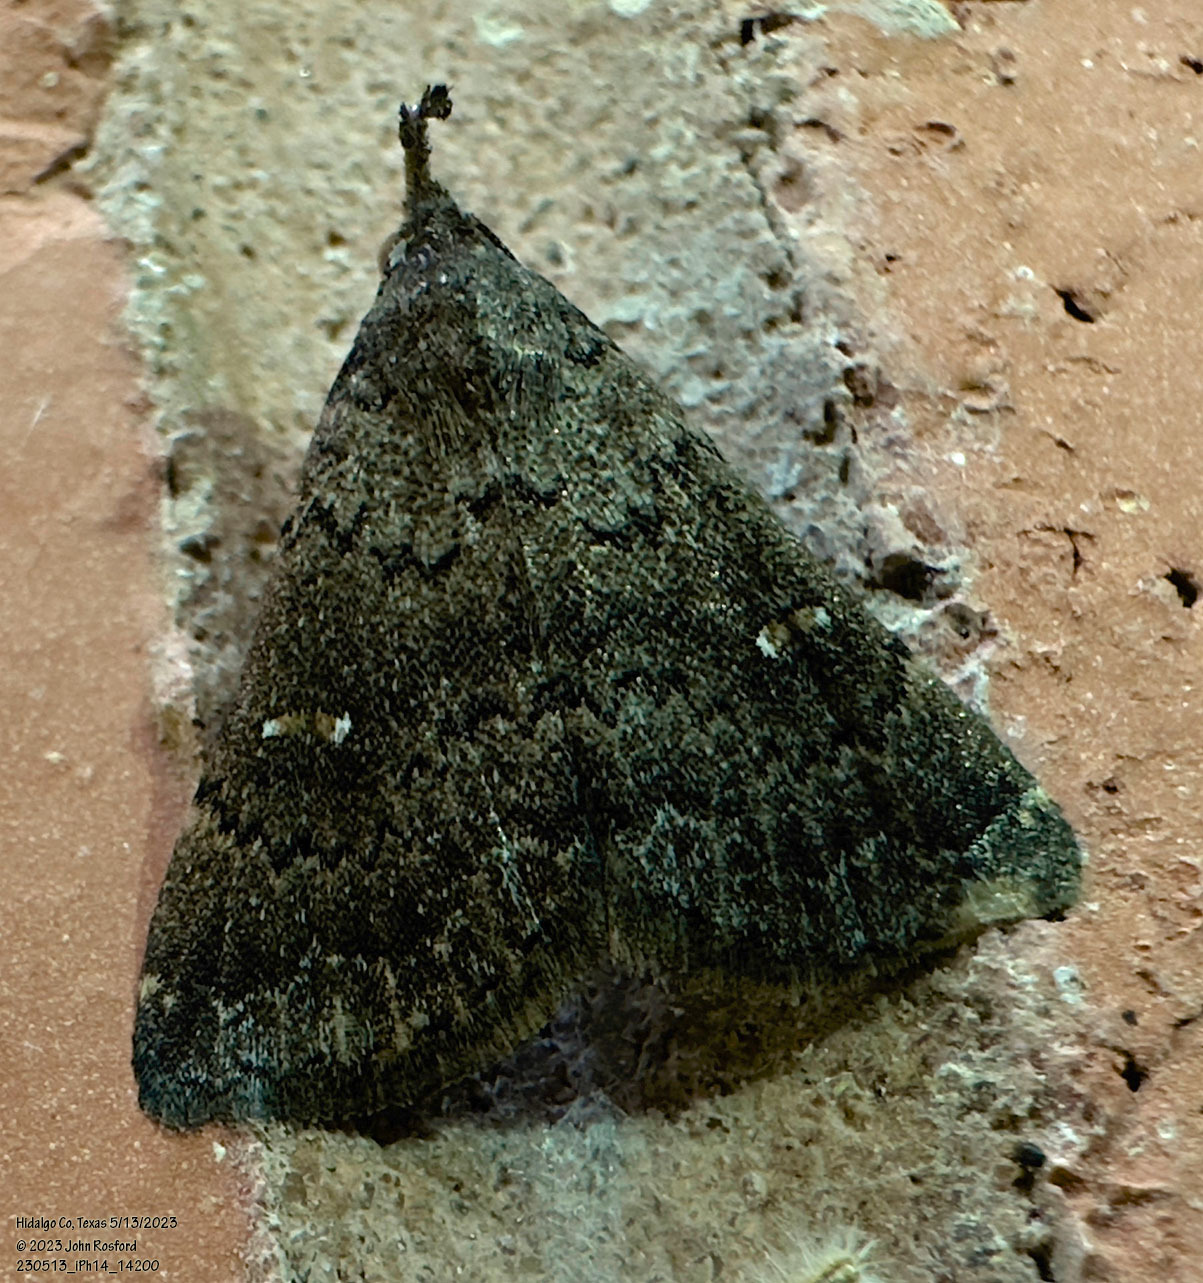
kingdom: Animalia
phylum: Arthropoda
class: Insecta
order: Lepidoptera
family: Erebidae
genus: Hypenula
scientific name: Hypenula cacuminalis
